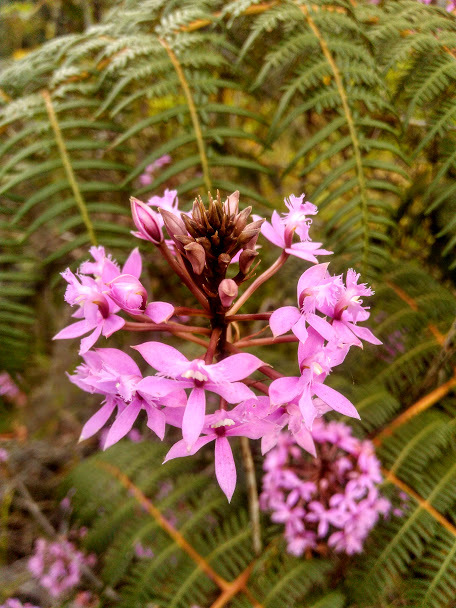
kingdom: Plantae
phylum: Tracheophyta
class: Liliopsida
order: Asparagales
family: Orchidaceae
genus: Epidendrum
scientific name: Epidendrum arachnoglossum
